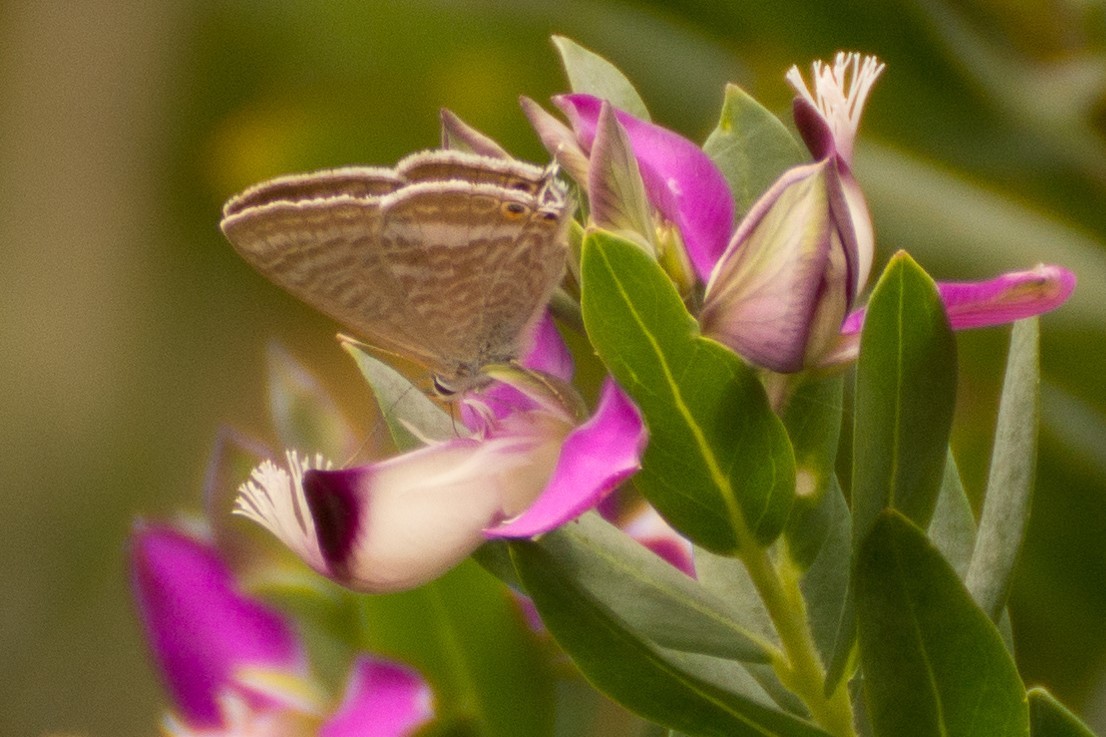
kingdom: Animalia
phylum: Arthropoda
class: Insecta
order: Lepidoptera
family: Lycaenidae
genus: Lampides
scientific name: Lampides boeticus
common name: Long-tailed blue
